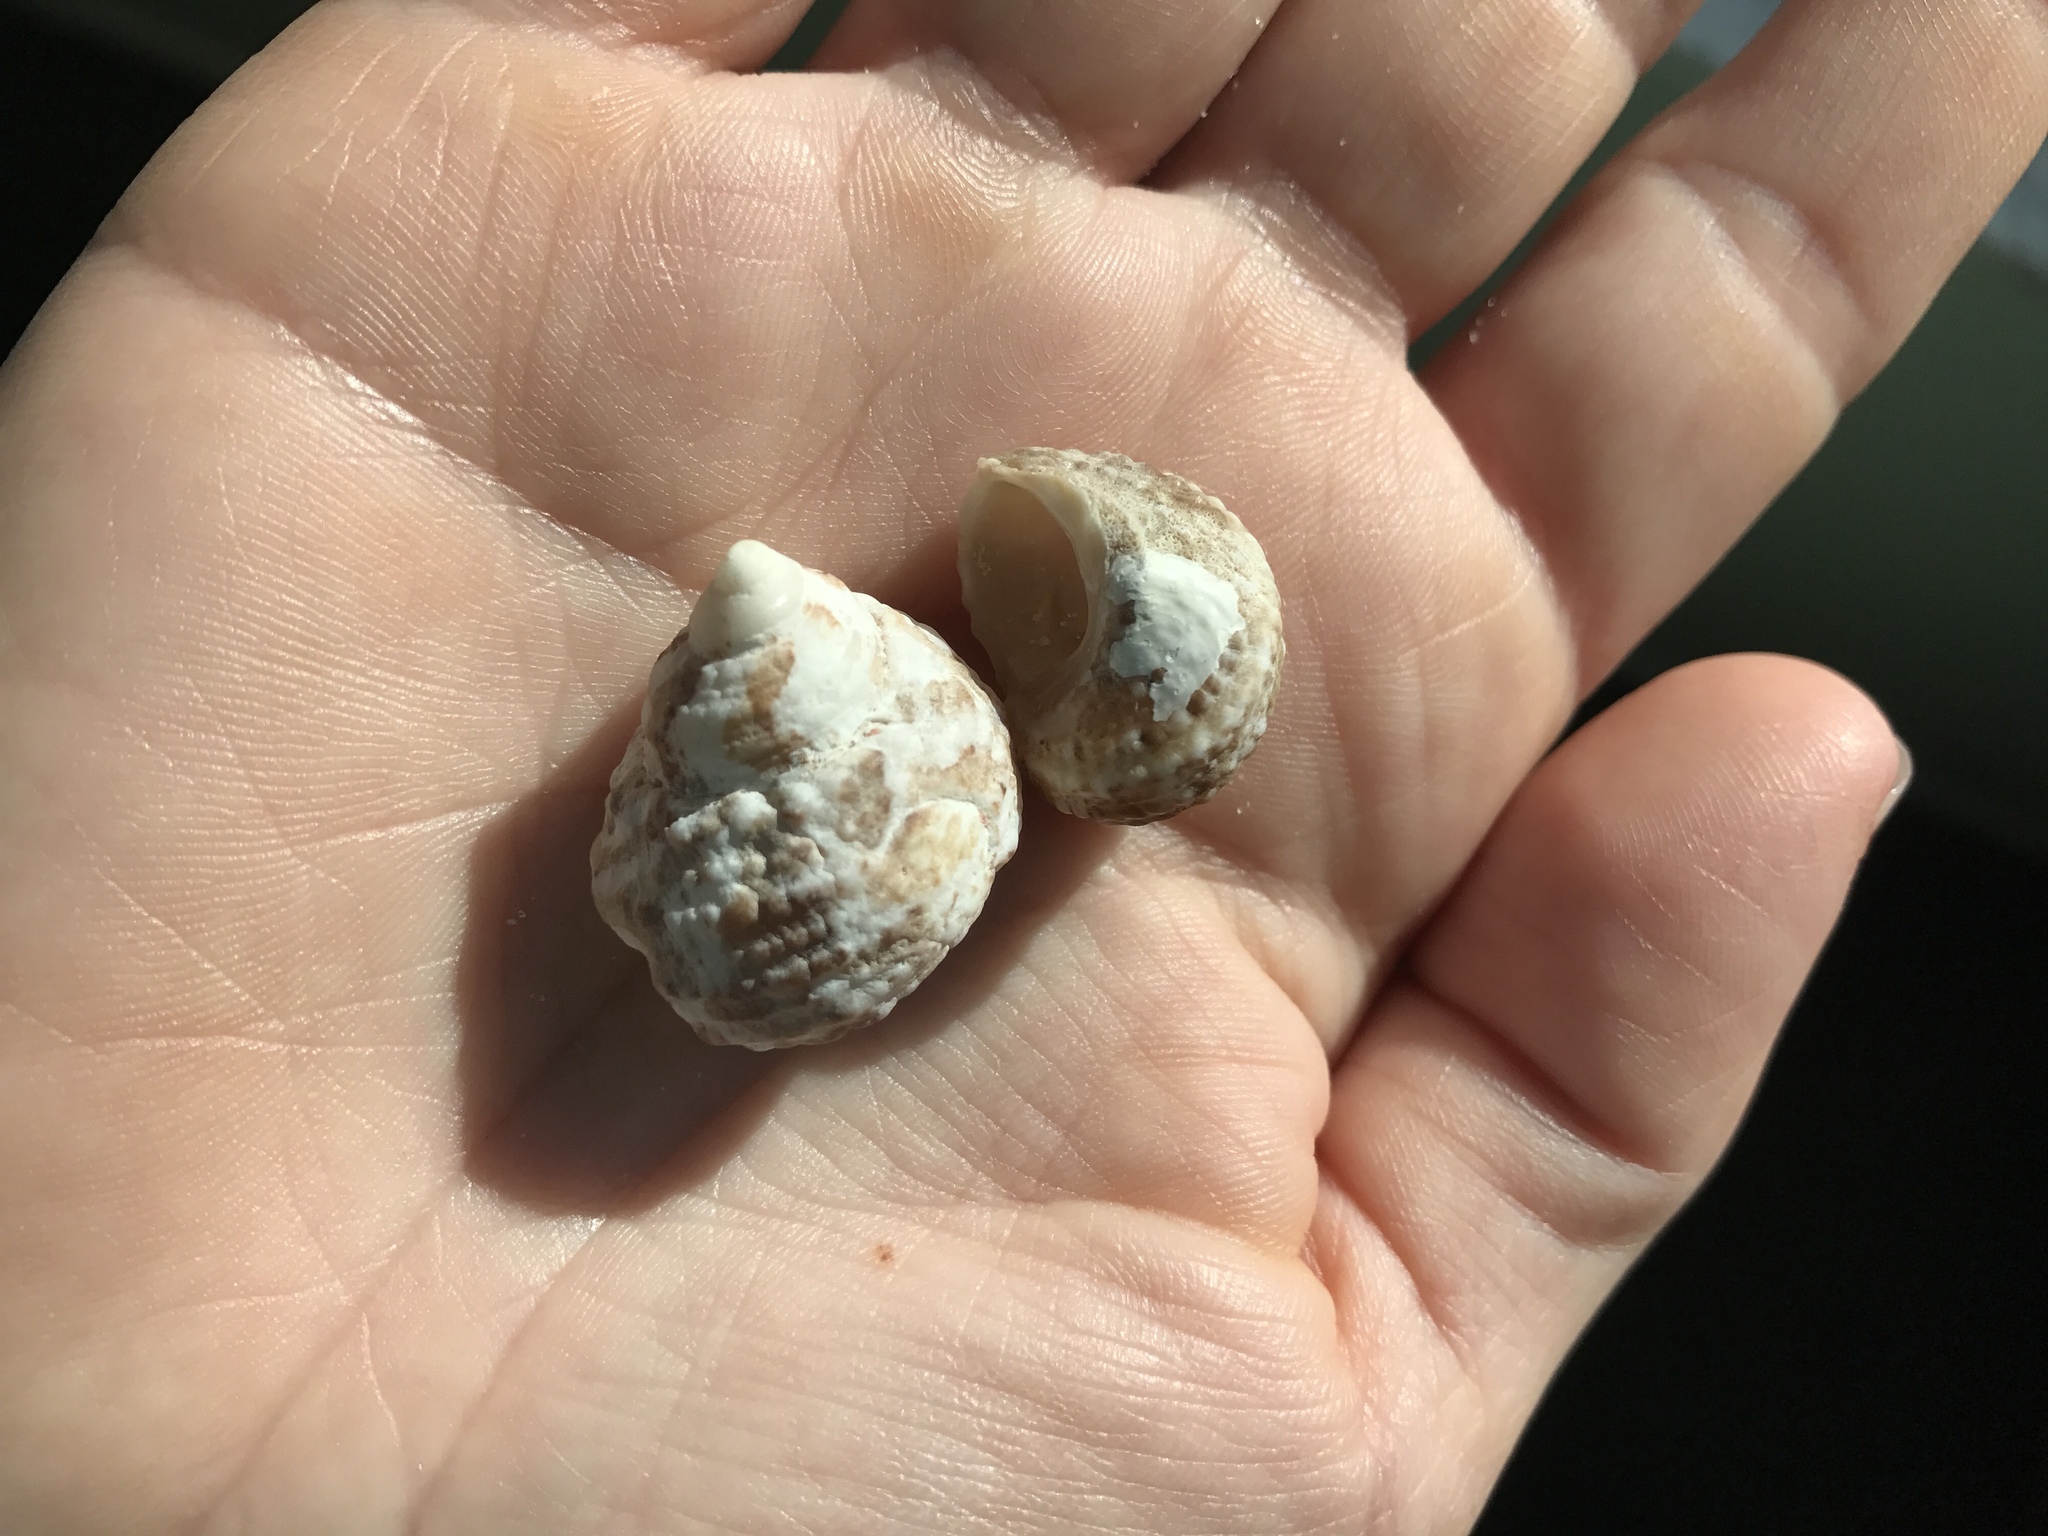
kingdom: Animalia
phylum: Mollusca
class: Gastropoda
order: Trochida
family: Turbinidae
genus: Turbo
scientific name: Turbo castanea
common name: Chestnut turban
